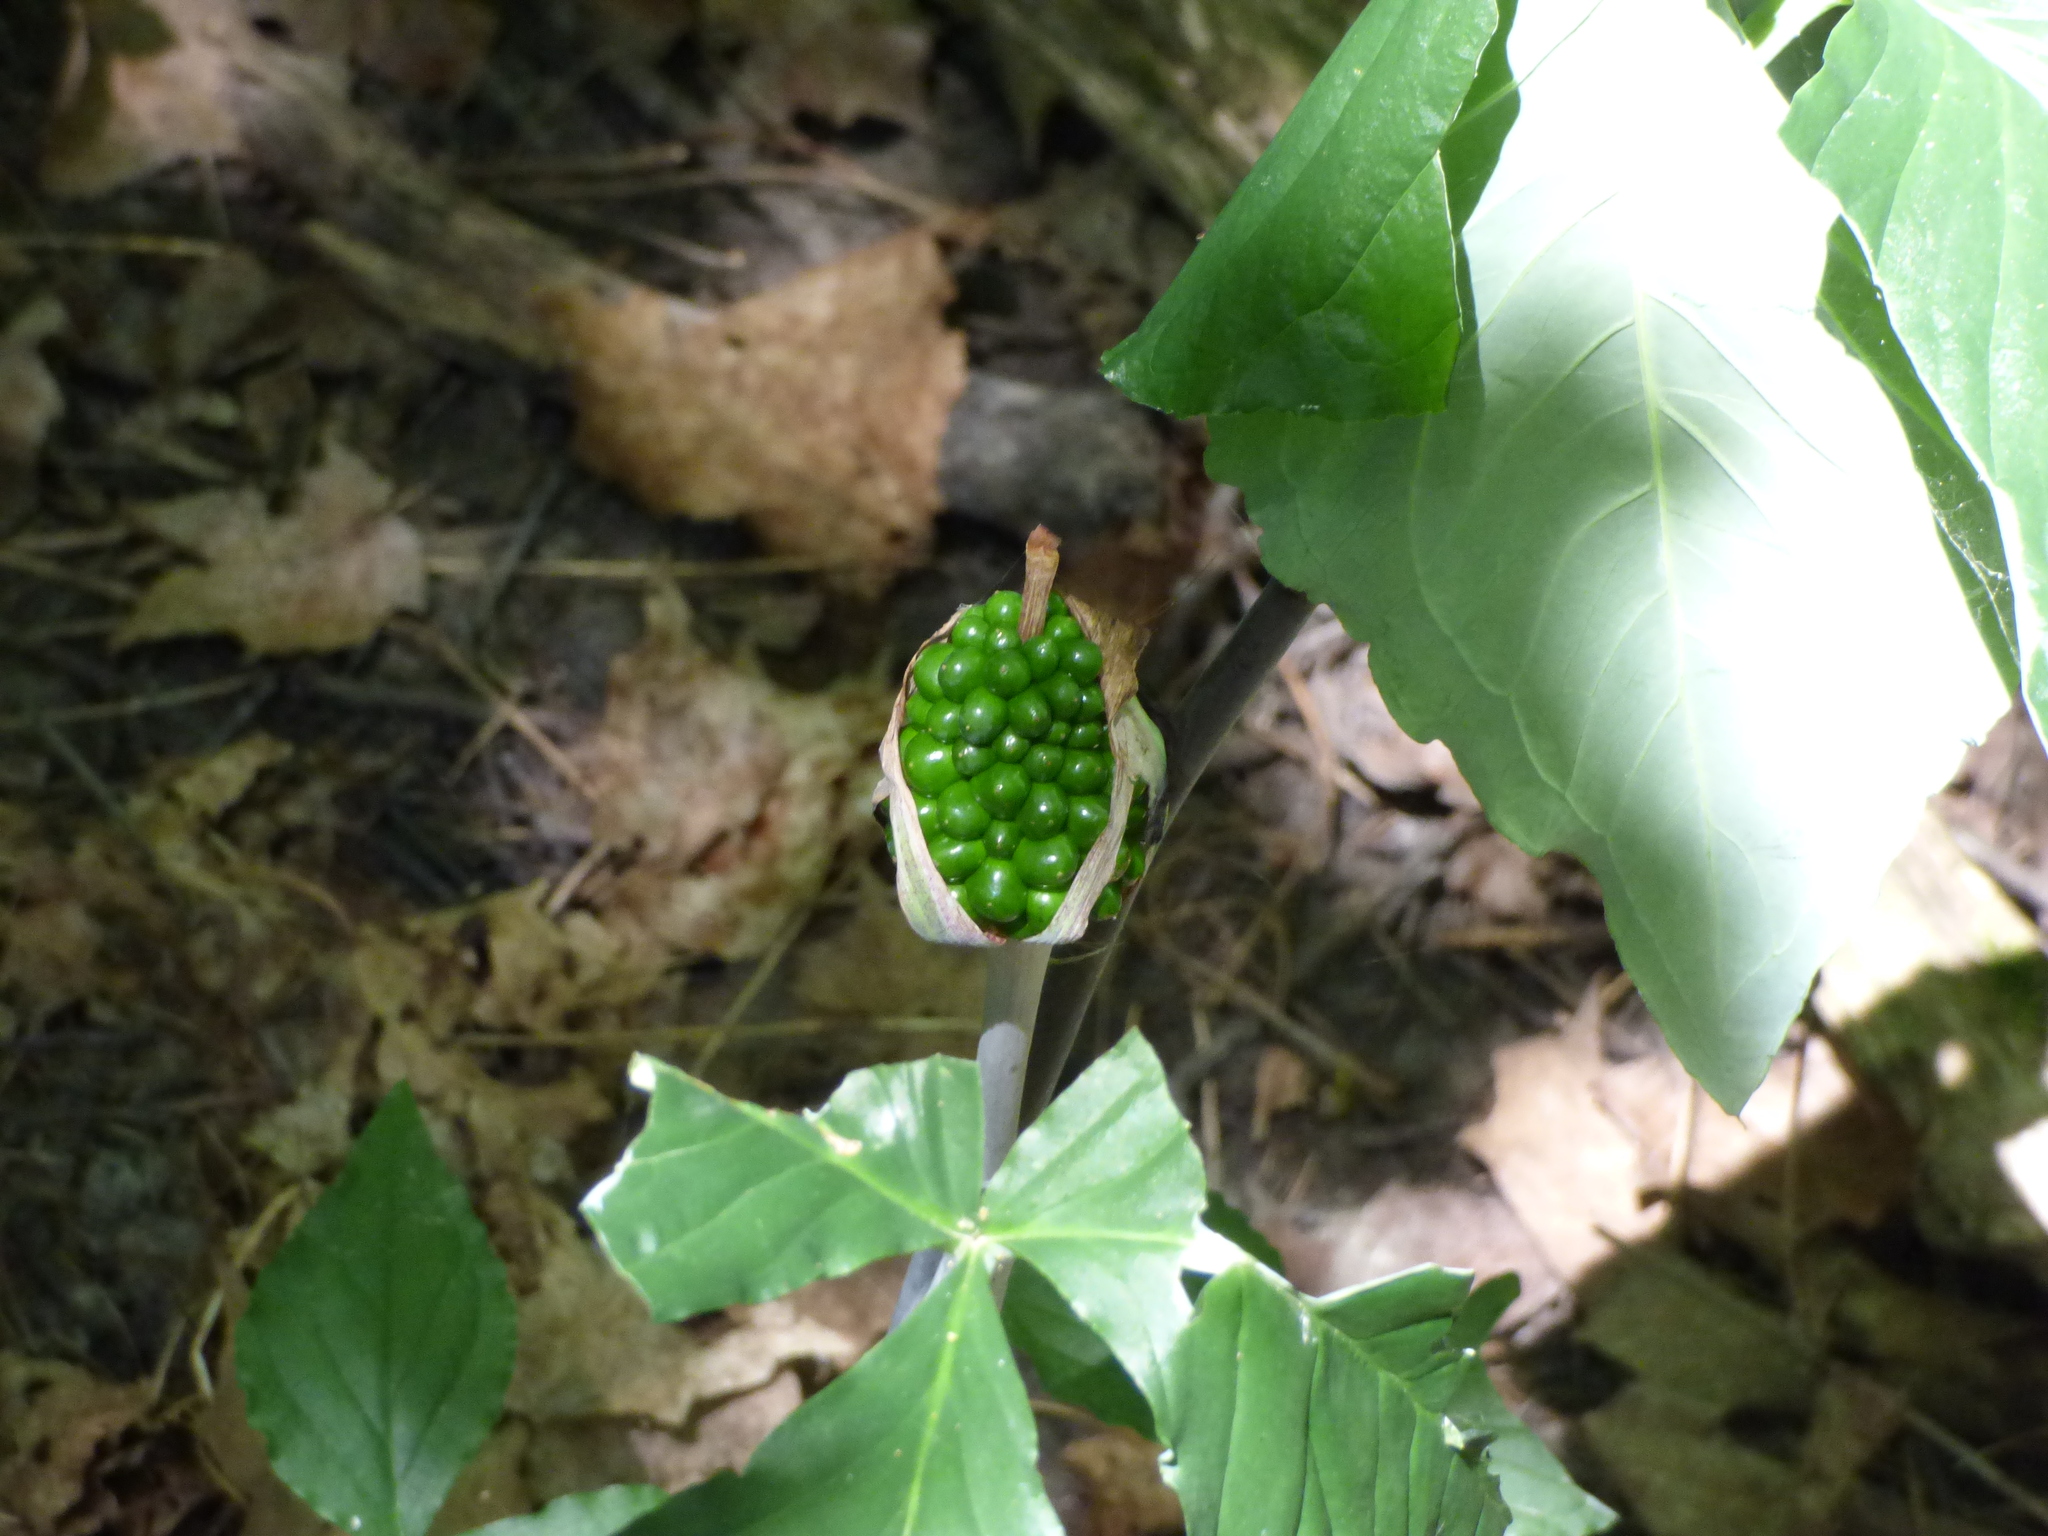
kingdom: Plantae
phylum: Tracheophyta
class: Liliopsida
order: Alismatales
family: Araceae
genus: Arisaema
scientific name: Arisaema triphyllum
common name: Jack-in-the-pulpit
